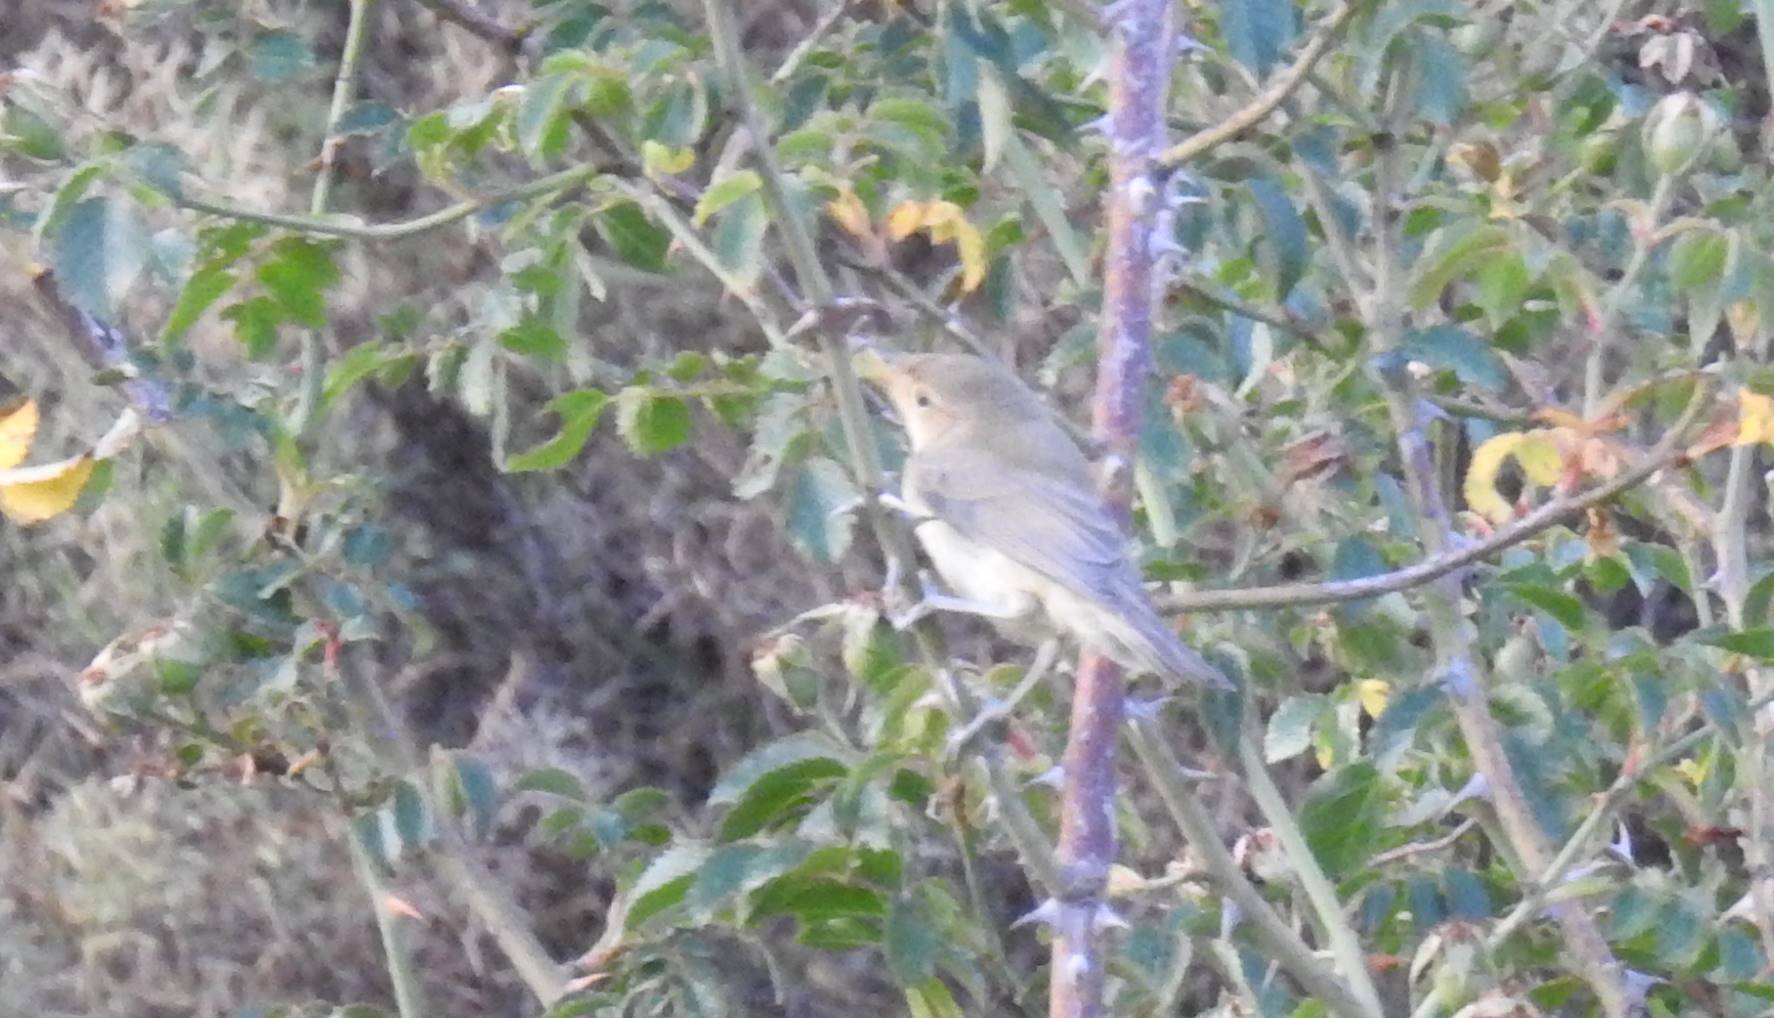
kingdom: Animalia
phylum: Chordata
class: Aves
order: Passeriformes
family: Acrocephalidae
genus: Hippolais
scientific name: Hippolais polyglotta
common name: Melodious warbler
